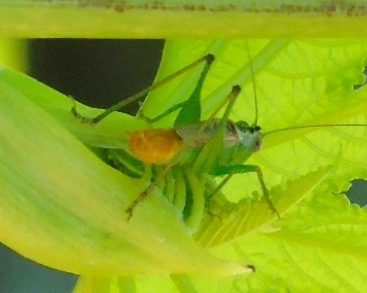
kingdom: Animalia
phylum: Arthropoda
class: Insecta
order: Orthoptera
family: Tettigoniidae
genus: Conocephalus
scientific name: Conocephalus
